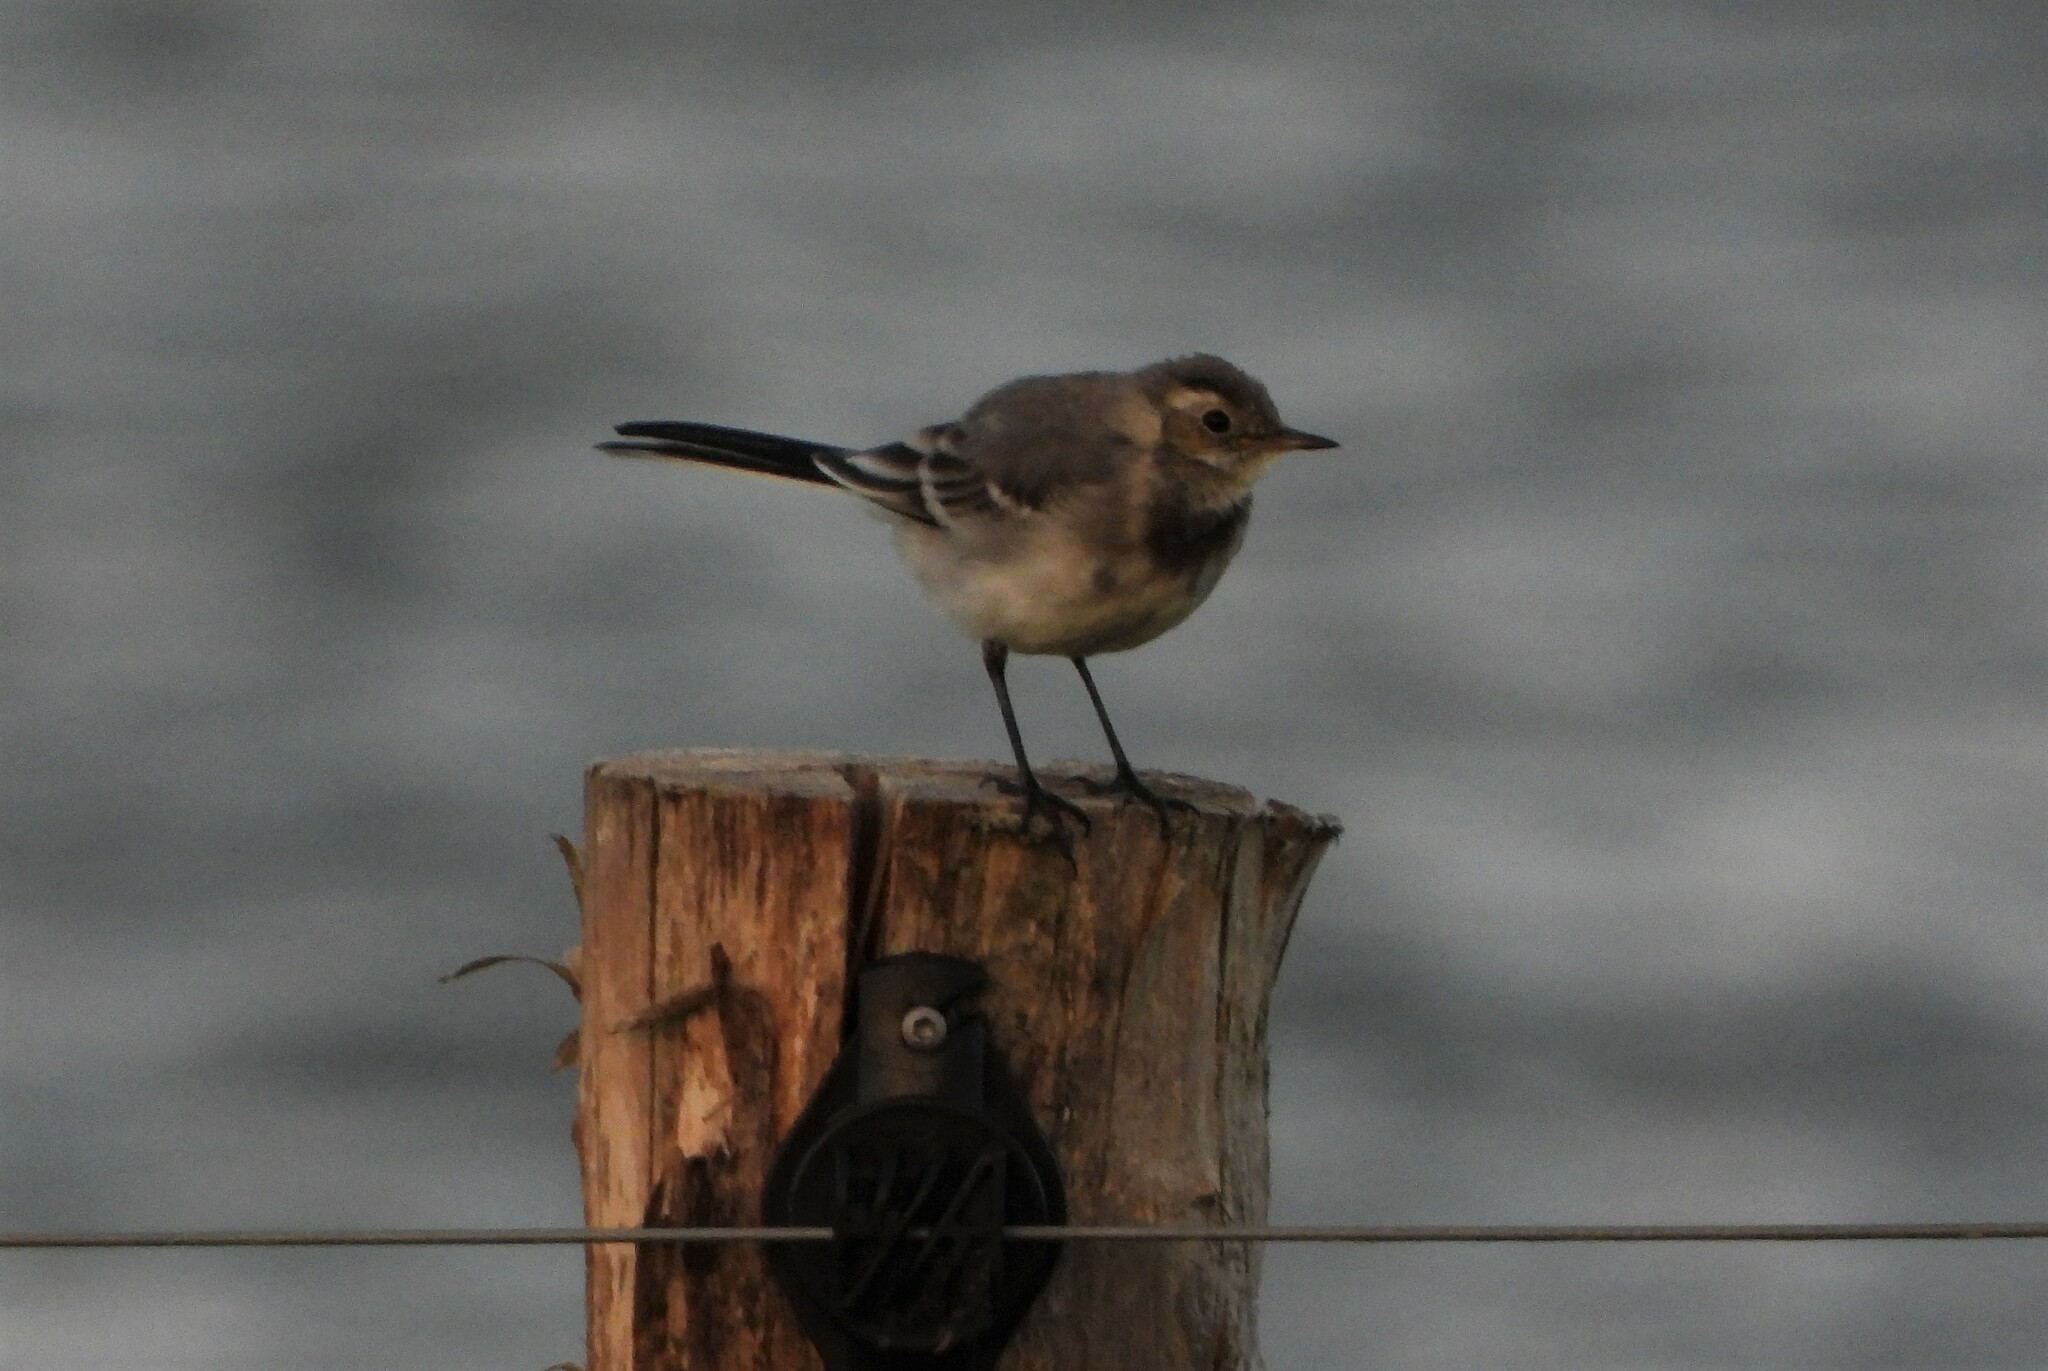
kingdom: Animalia
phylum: Chordata
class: Aves
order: Passeriformes
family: Motacillidae
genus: Motacilla
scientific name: Motacilla alba
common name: White wagtail
